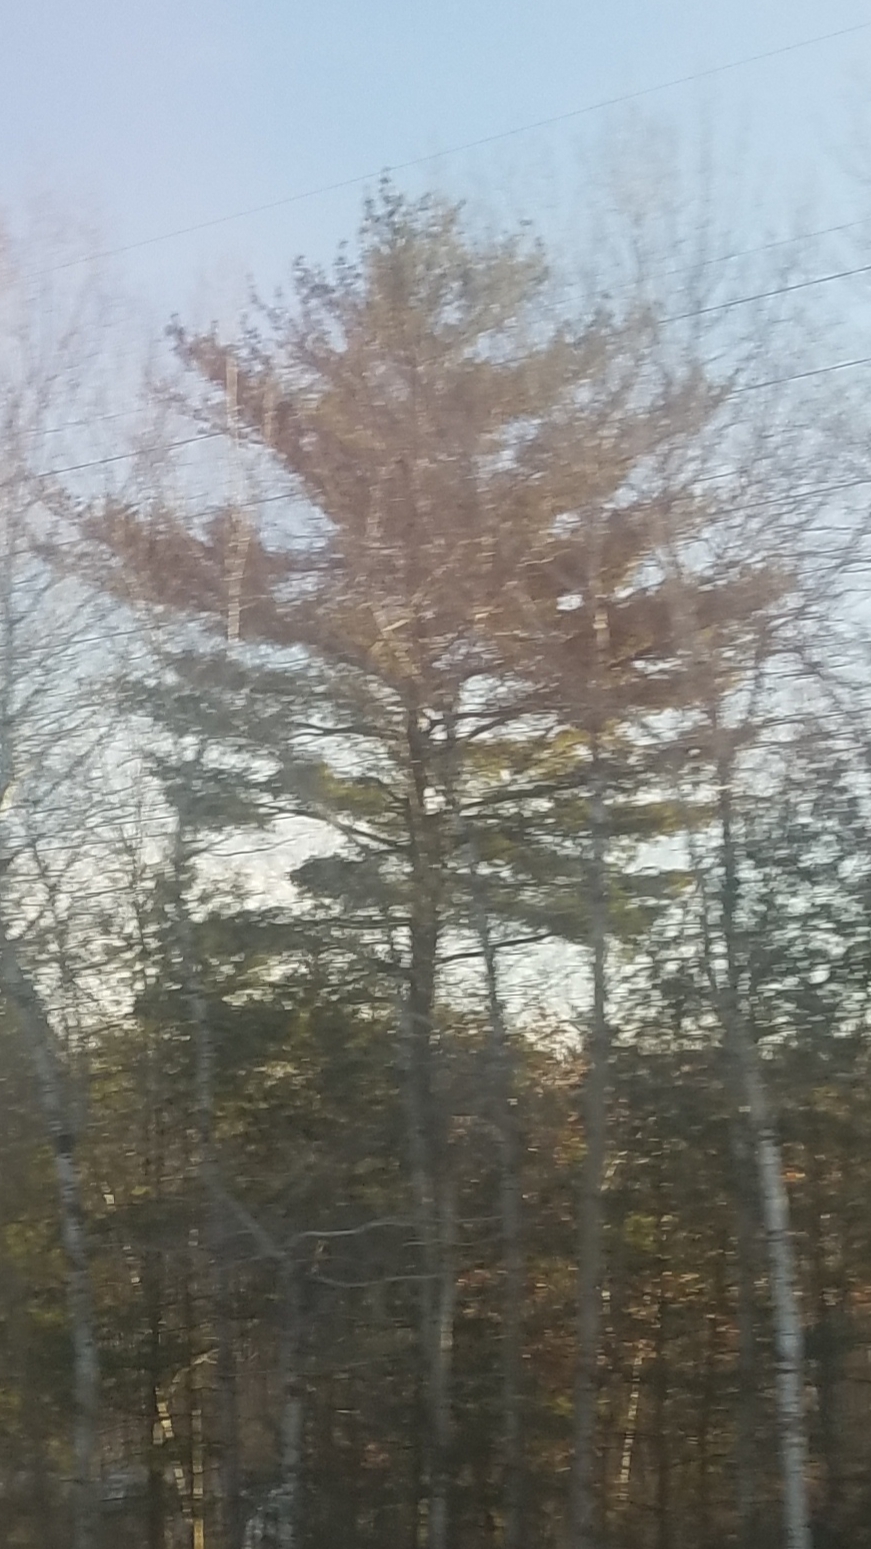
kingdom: Plantae
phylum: Tracheophyta
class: Pinopsida
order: Pinales
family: Pinaceae
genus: Pinus
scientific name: Pinus strobus
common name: Weymouth pine
